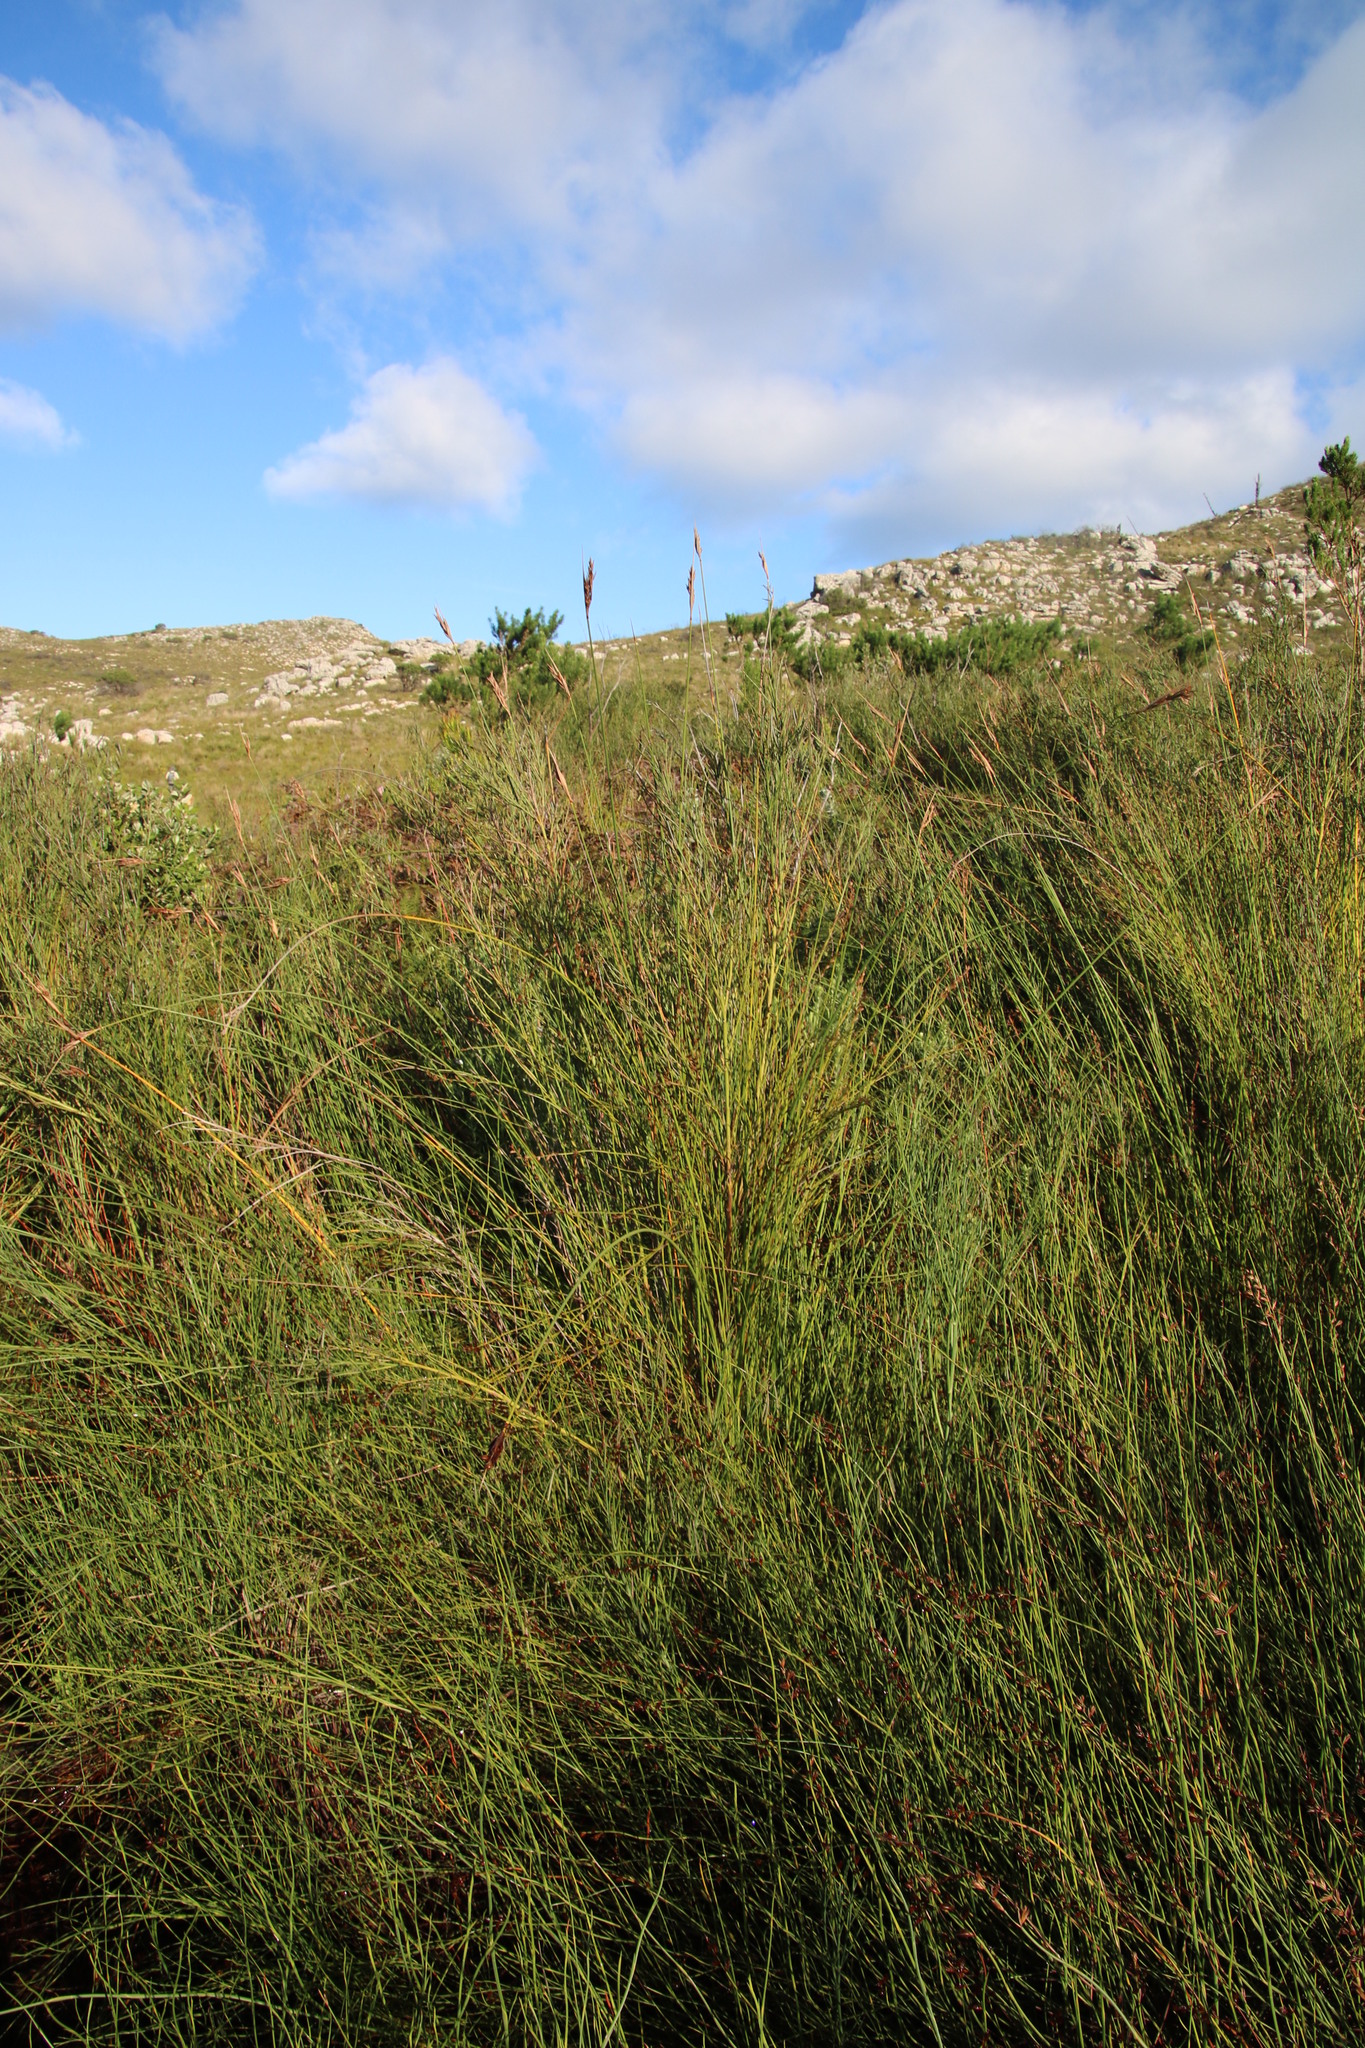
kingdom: Plantae
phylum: Tracheophyta
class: Liliopsida
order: Poales
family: Cyperaceae
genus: Neesenbeckia
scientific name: Neesenbeckia punctoria
